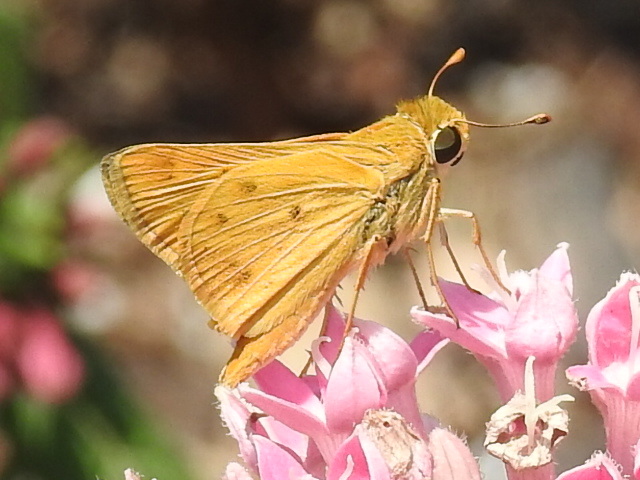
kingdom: Animalia
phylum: Arthropoda
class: Insecta
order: Lepidoptera
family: Hesperiidae
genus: Hylephila
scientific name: Hylephila phyleus
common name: Fiery skipper
